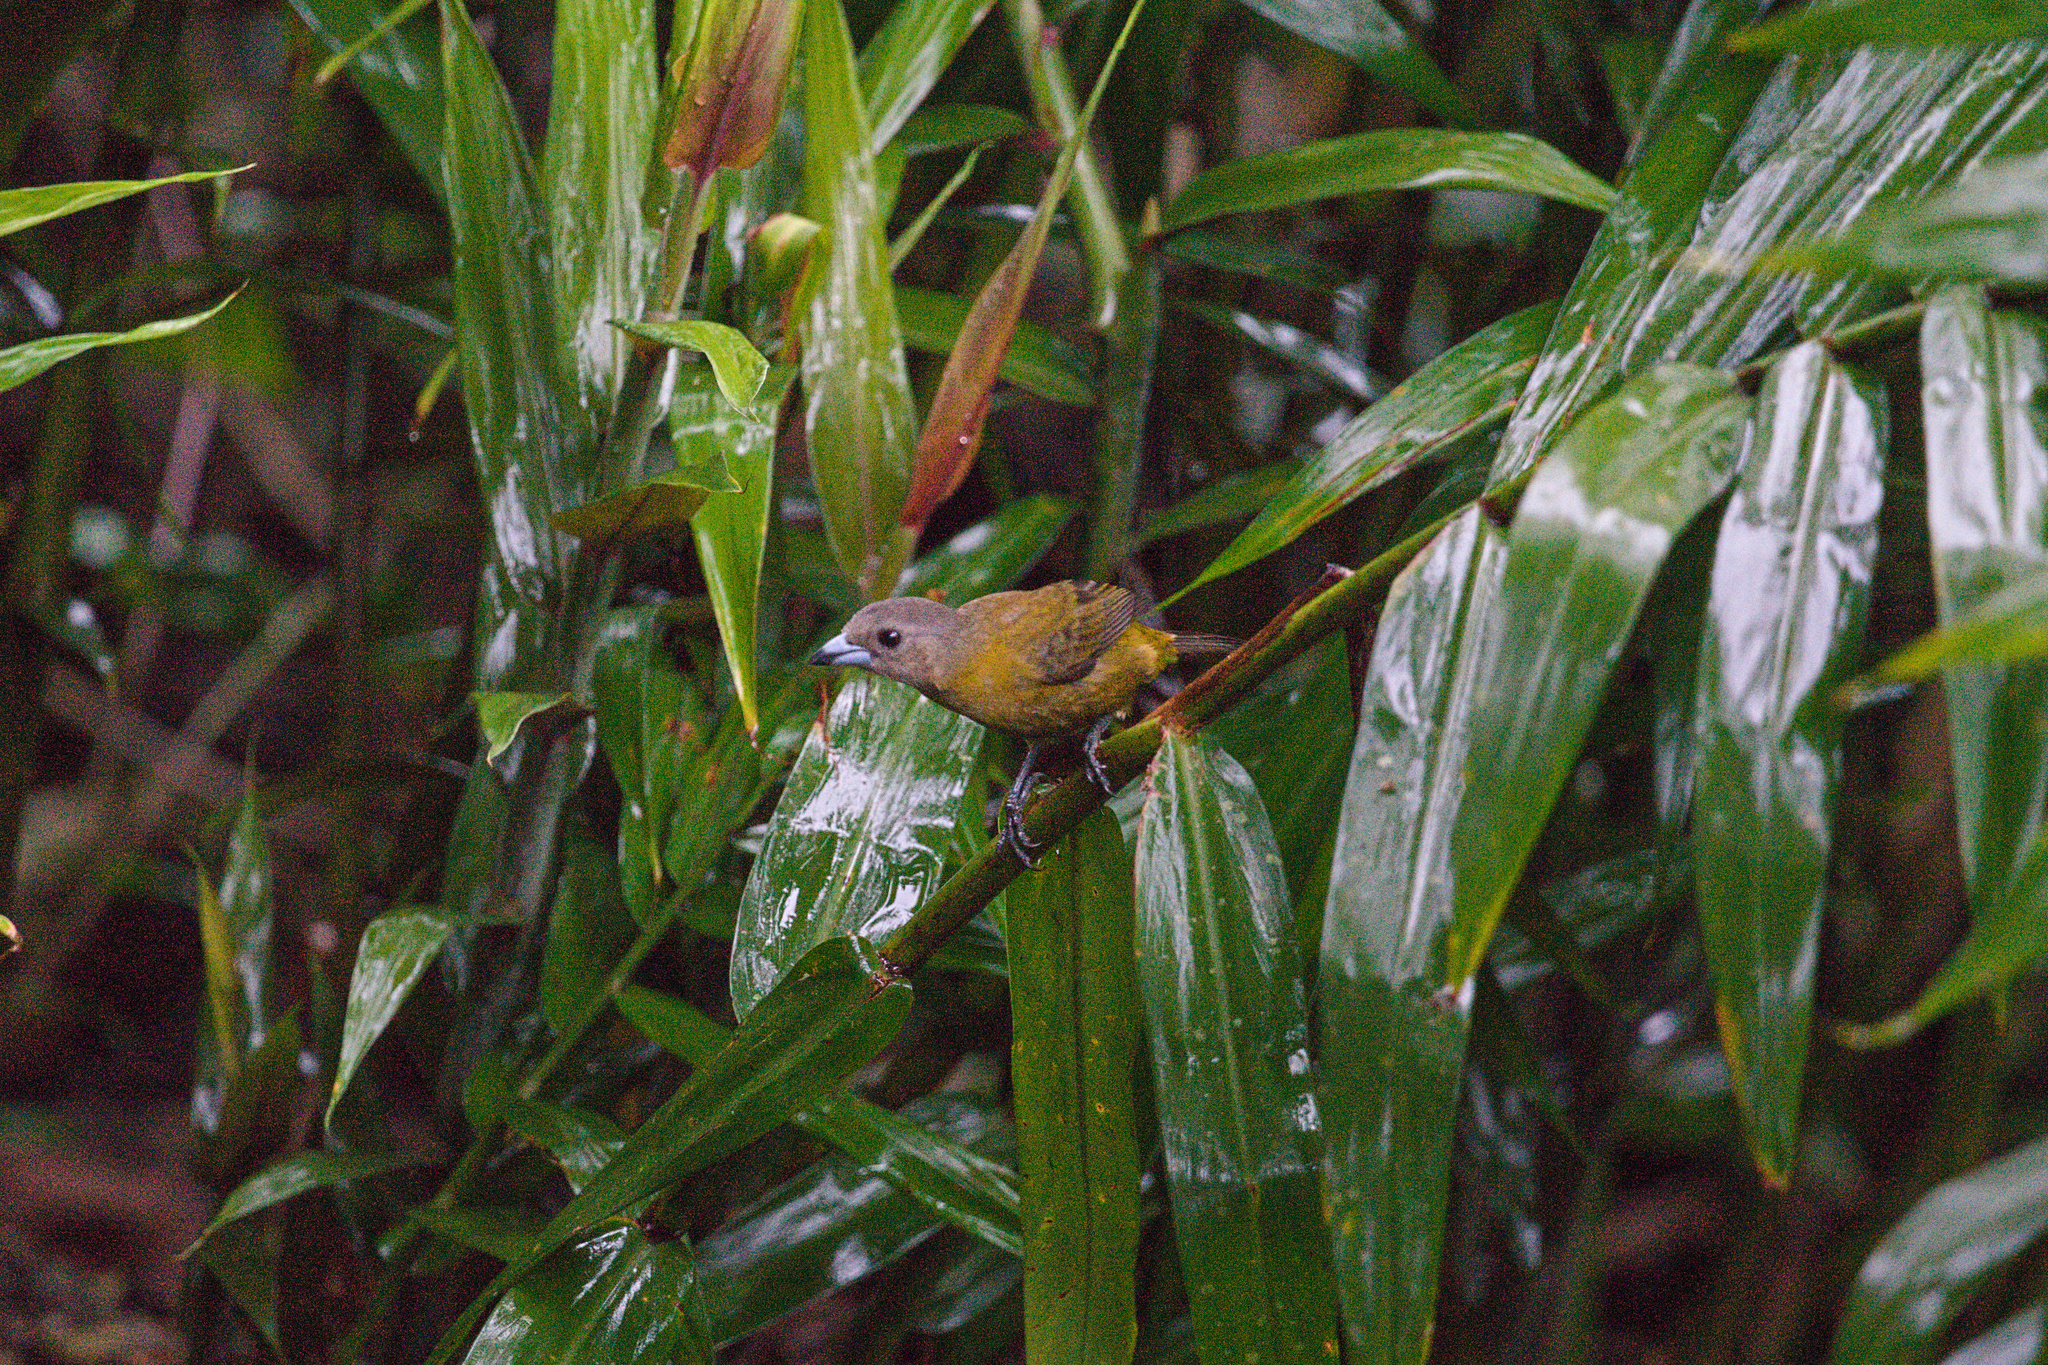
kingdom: Animalia
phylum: Chordata
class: Aves
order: Passeriformes
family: Thraupidae
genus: Ramphocelus
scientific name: Ramphocelus passerinii
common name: Passerini's tanager
